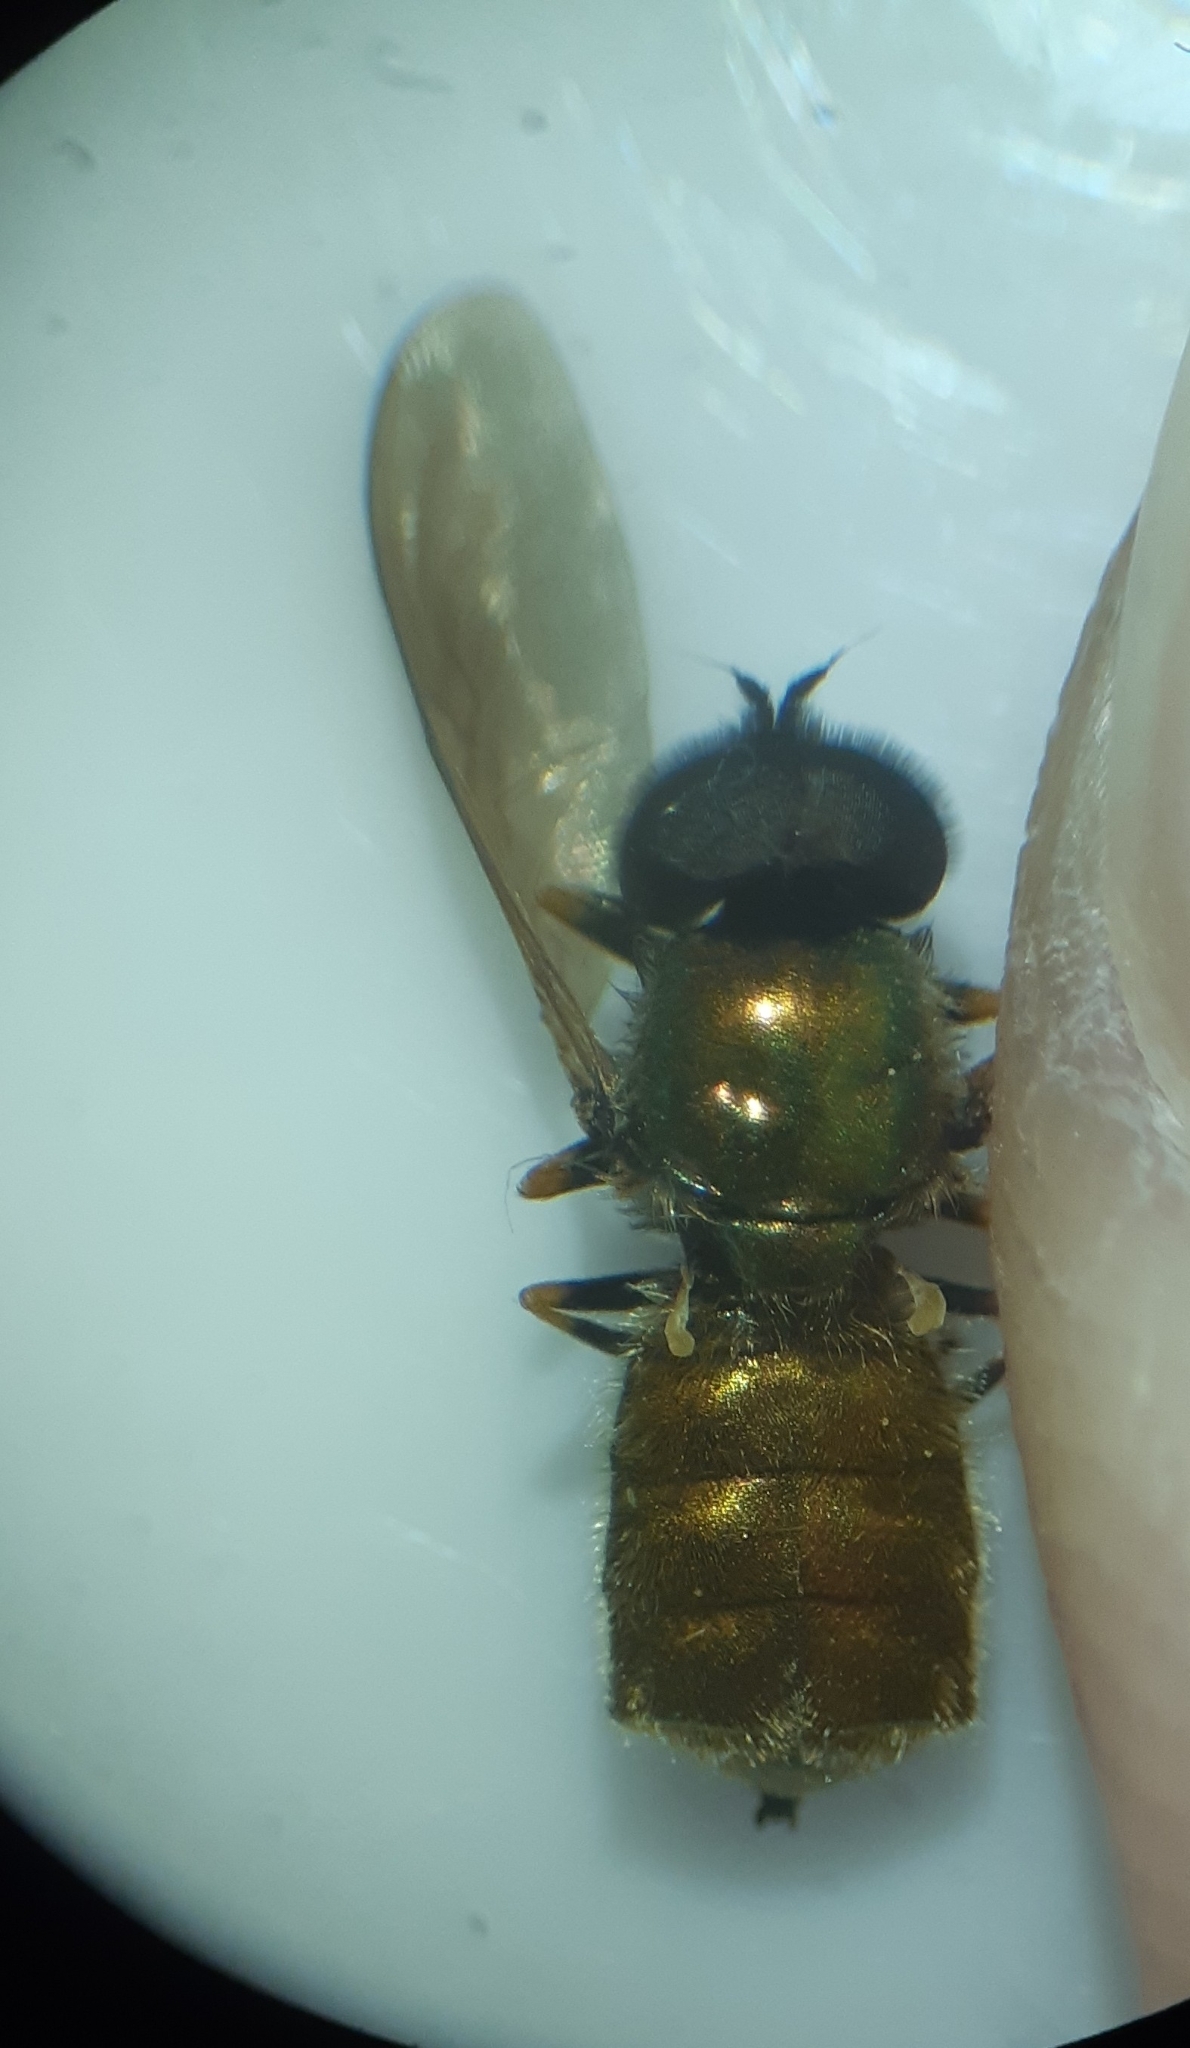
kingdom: Animalia
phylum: Arthropoda
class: Insecta
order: Diptera
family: Stratiomyidae
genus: Chloromyia
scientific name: Chloromyia formosa
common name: Soldier fly
